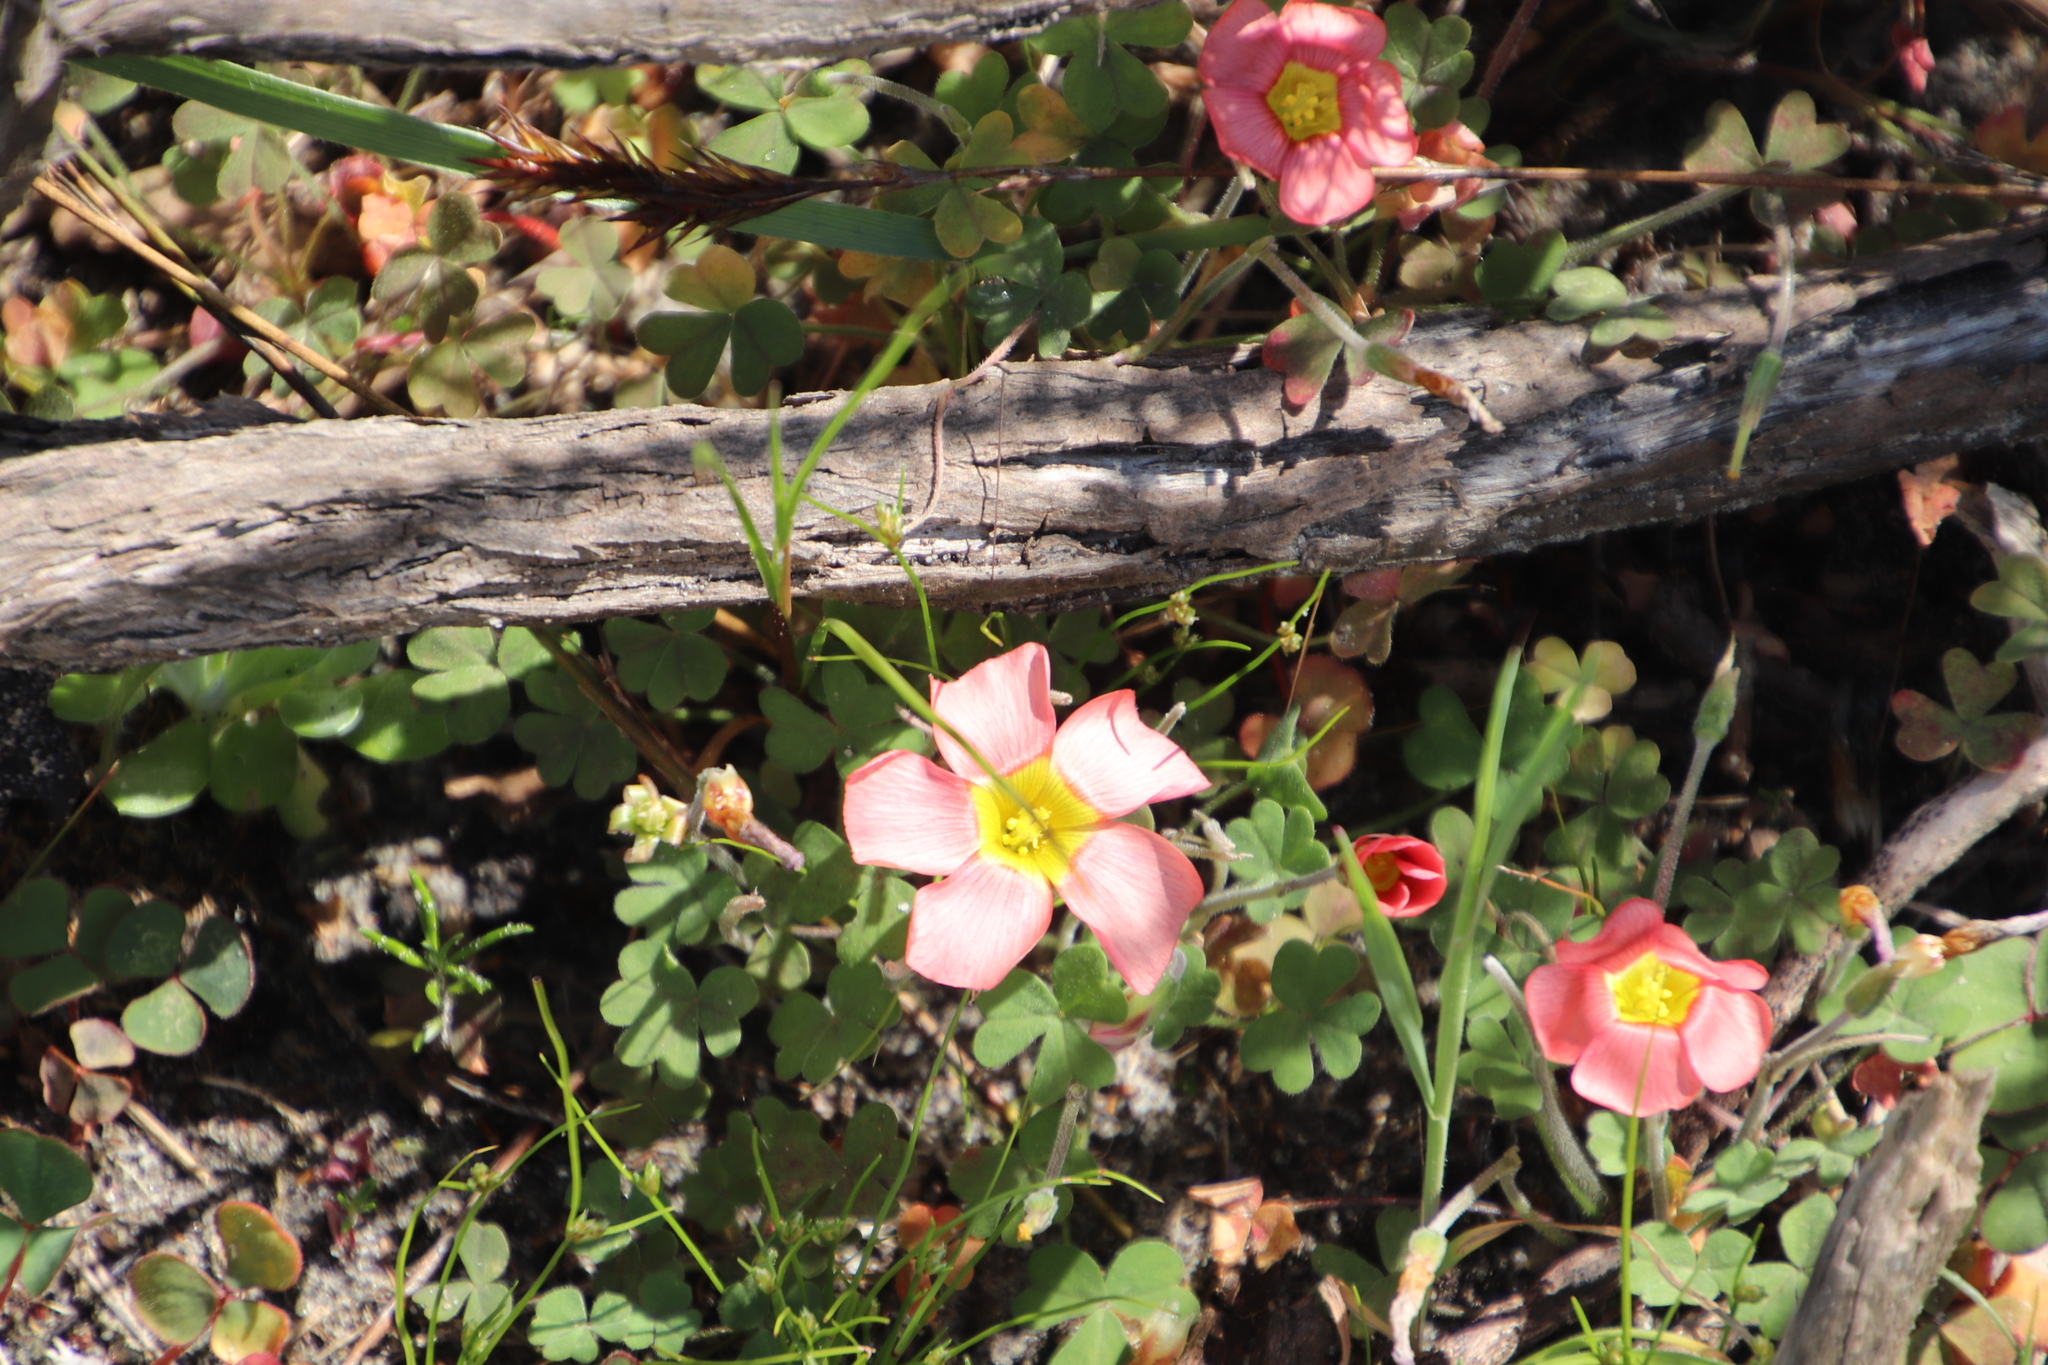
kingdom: Plantae
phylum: Tracheophyta
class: Magnoliopsida
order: Oxalidales
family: Oxalidaceae
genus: Oxalis
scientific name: Oxalis obtusa
